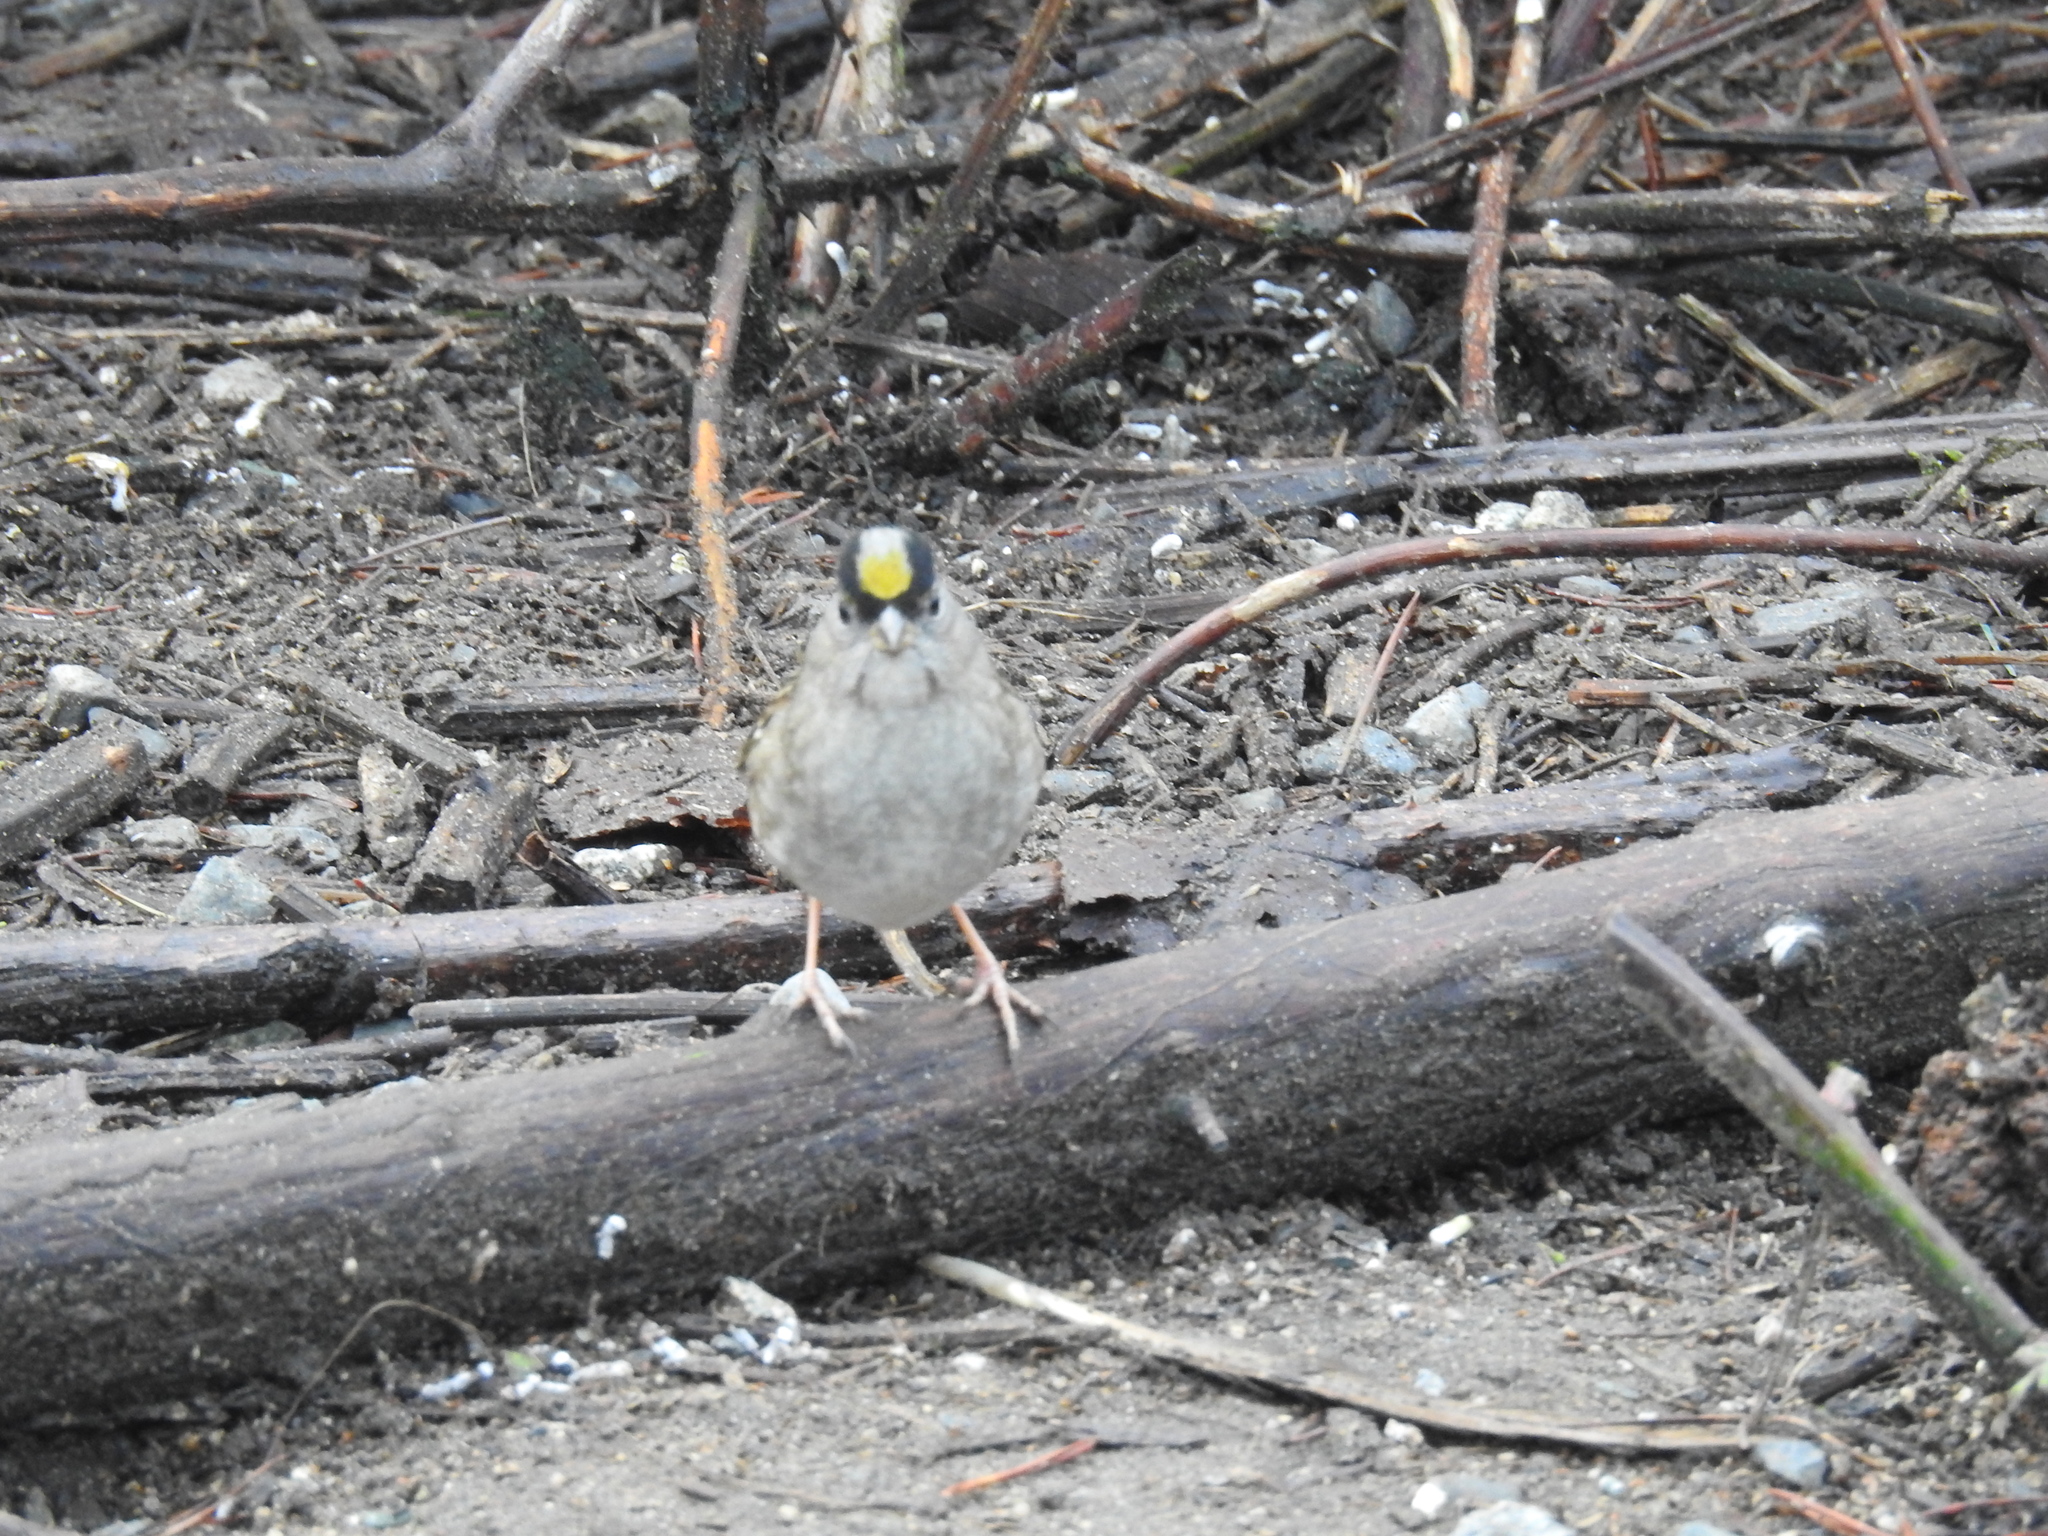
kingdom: Animalia
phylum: Chordata
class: Aves
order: Passeriformes
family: Passerellidae
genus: Zonotrichia
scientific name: Zonotrichia atricapilla
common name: Golden-crowned sparrow
